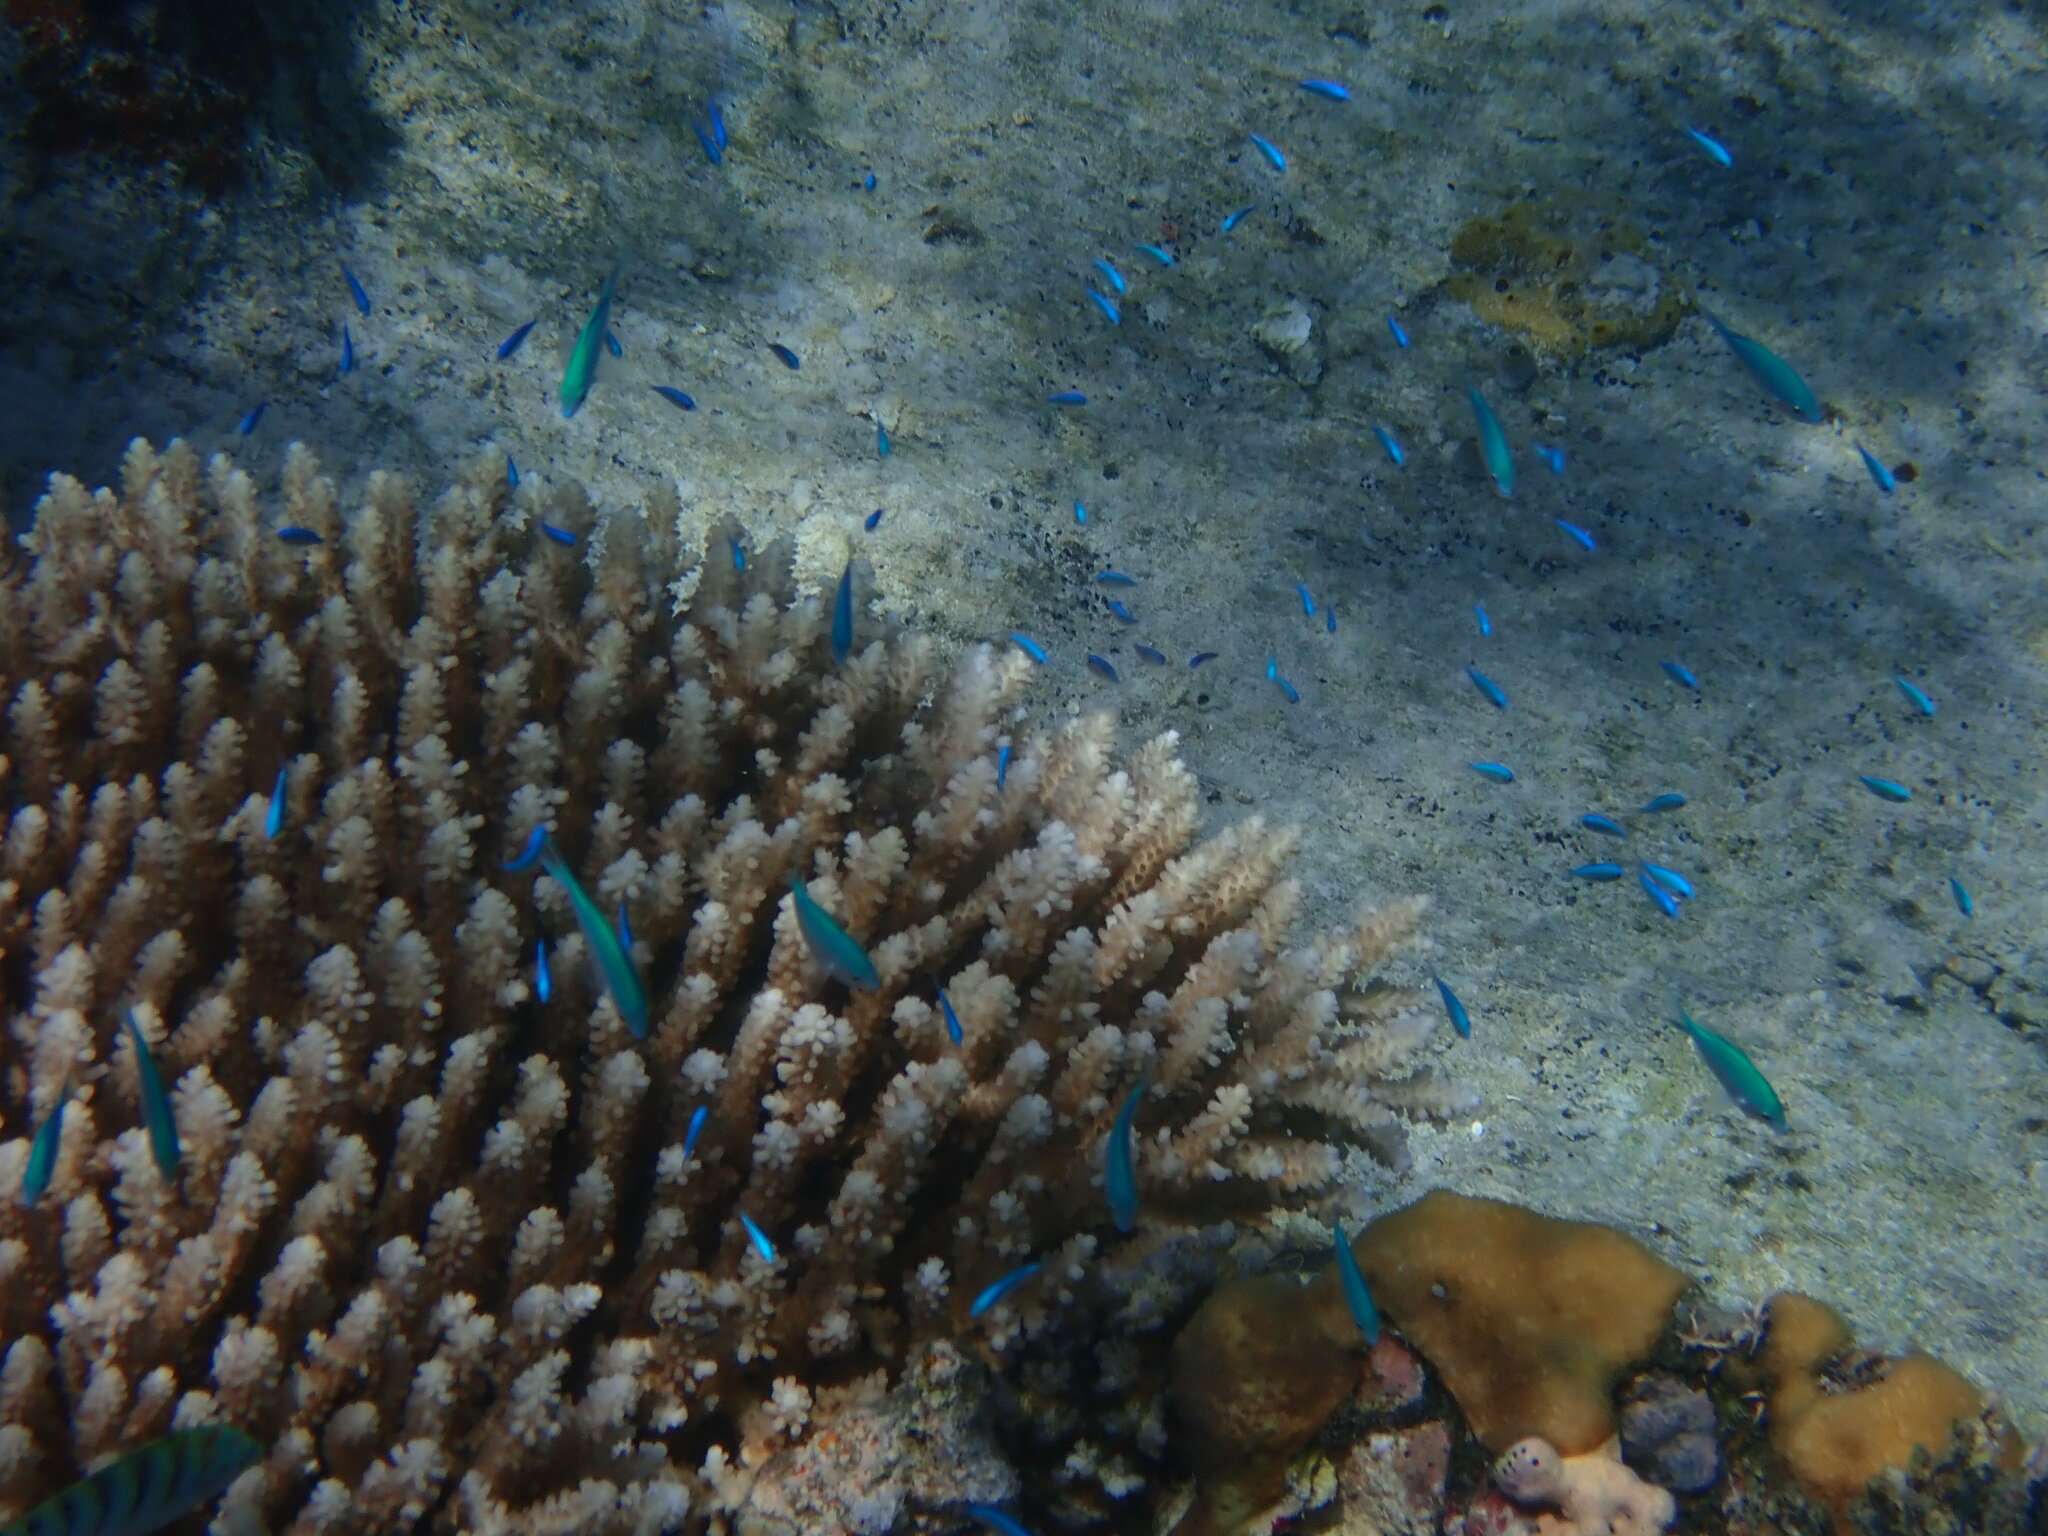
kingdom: Animalia
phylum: Chordata
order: Perciformes
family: Pomacentridae
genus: Chromis
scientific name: Chromis viridis
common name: Blue-green chromis
